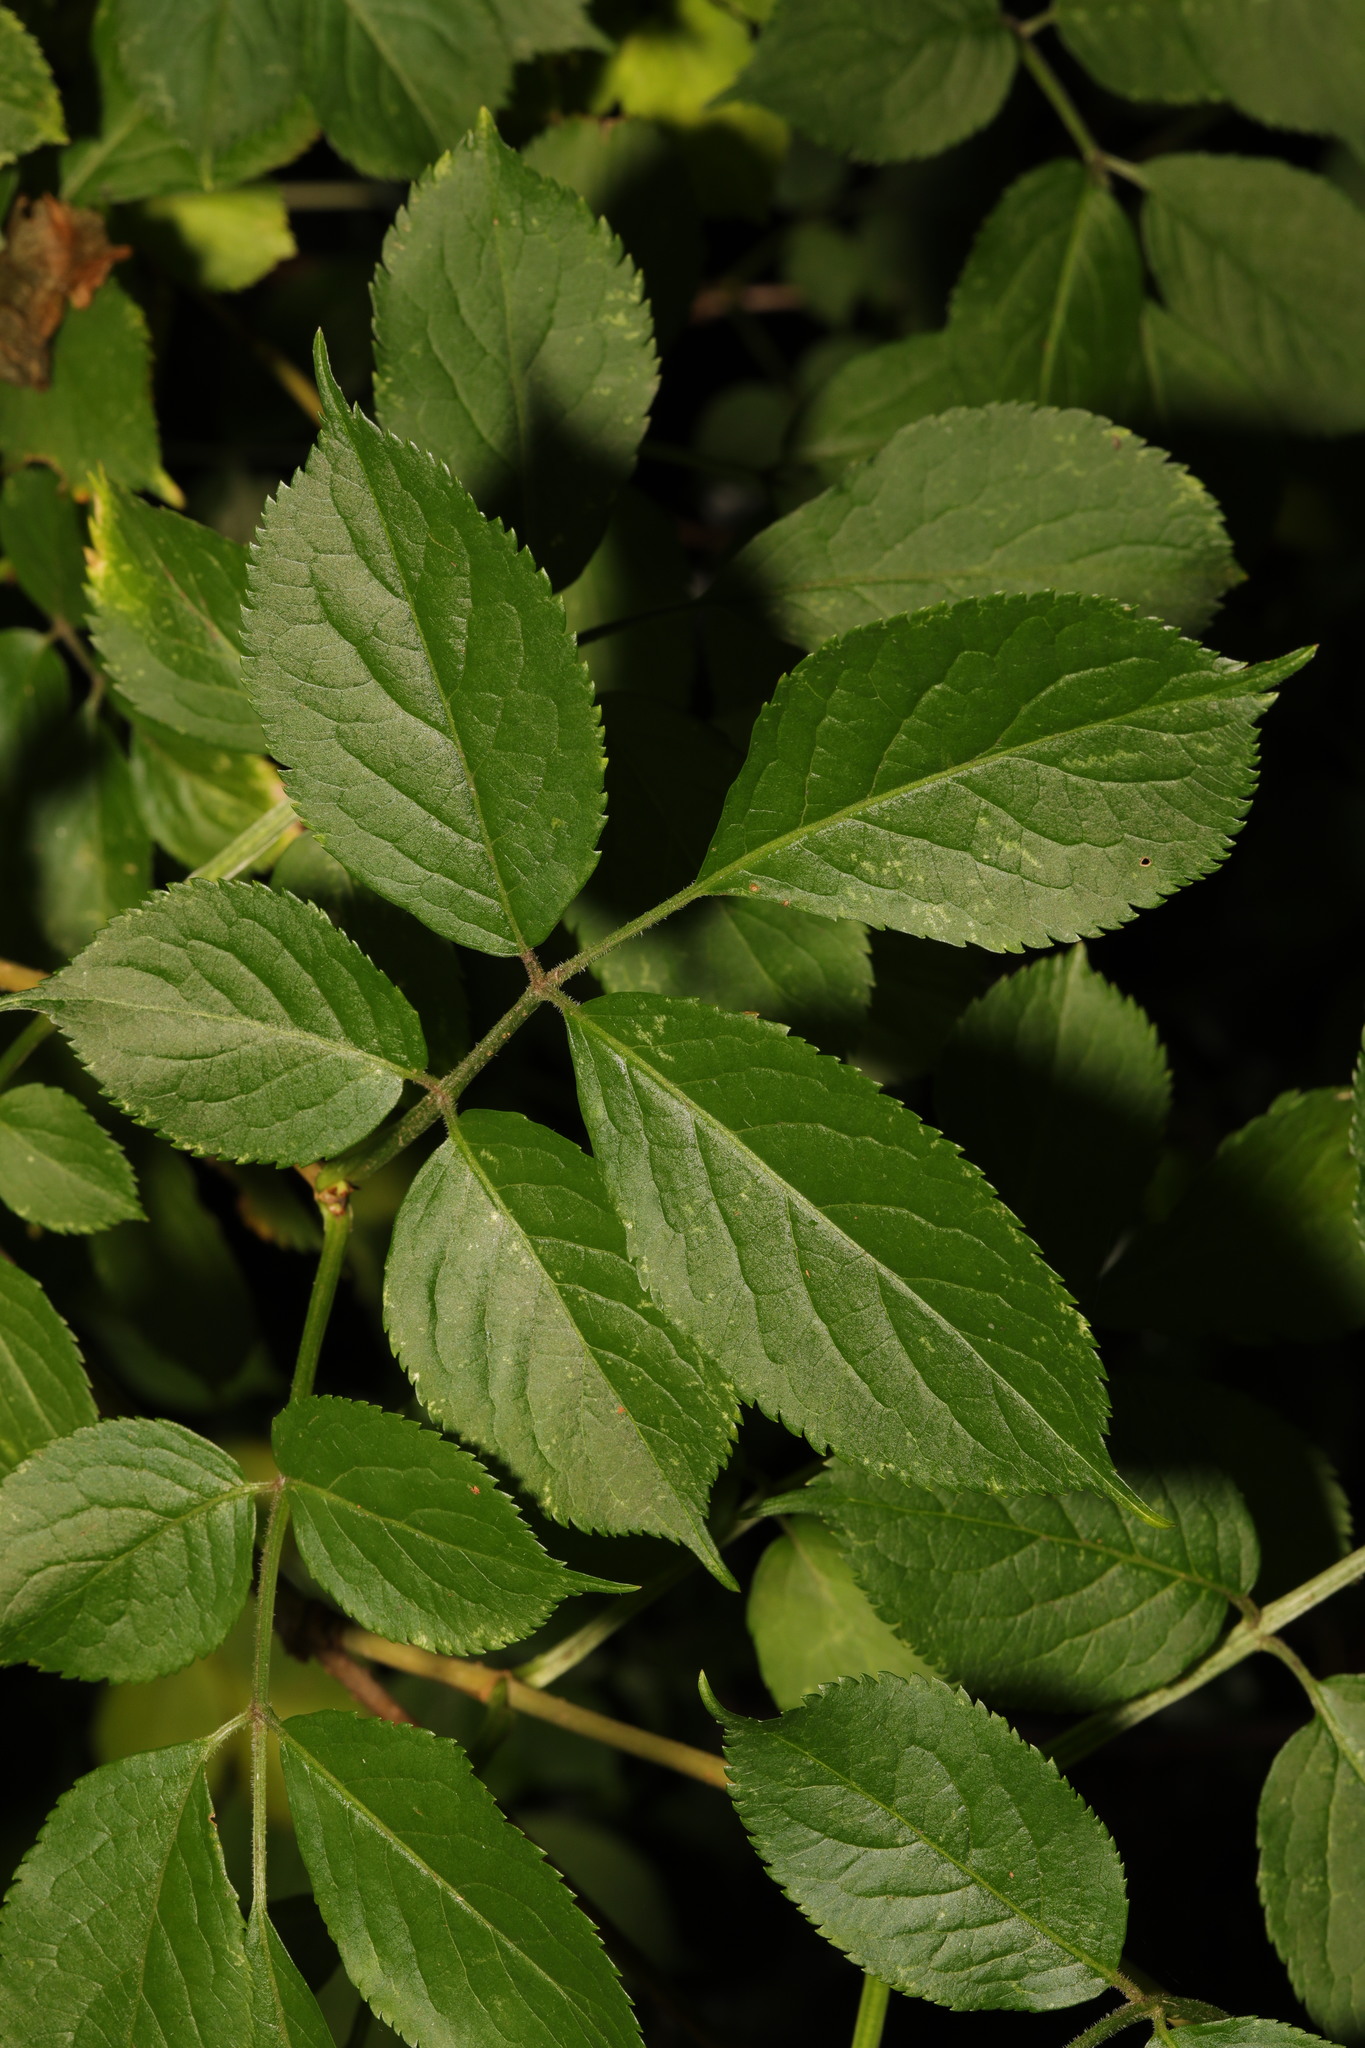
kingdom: Plantae
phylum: Tracheophyta
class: Magnoliopsida
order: Dipsacales
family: Viburnaceae
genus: Sambucus
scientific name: Sambucus nigra
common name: Elder
